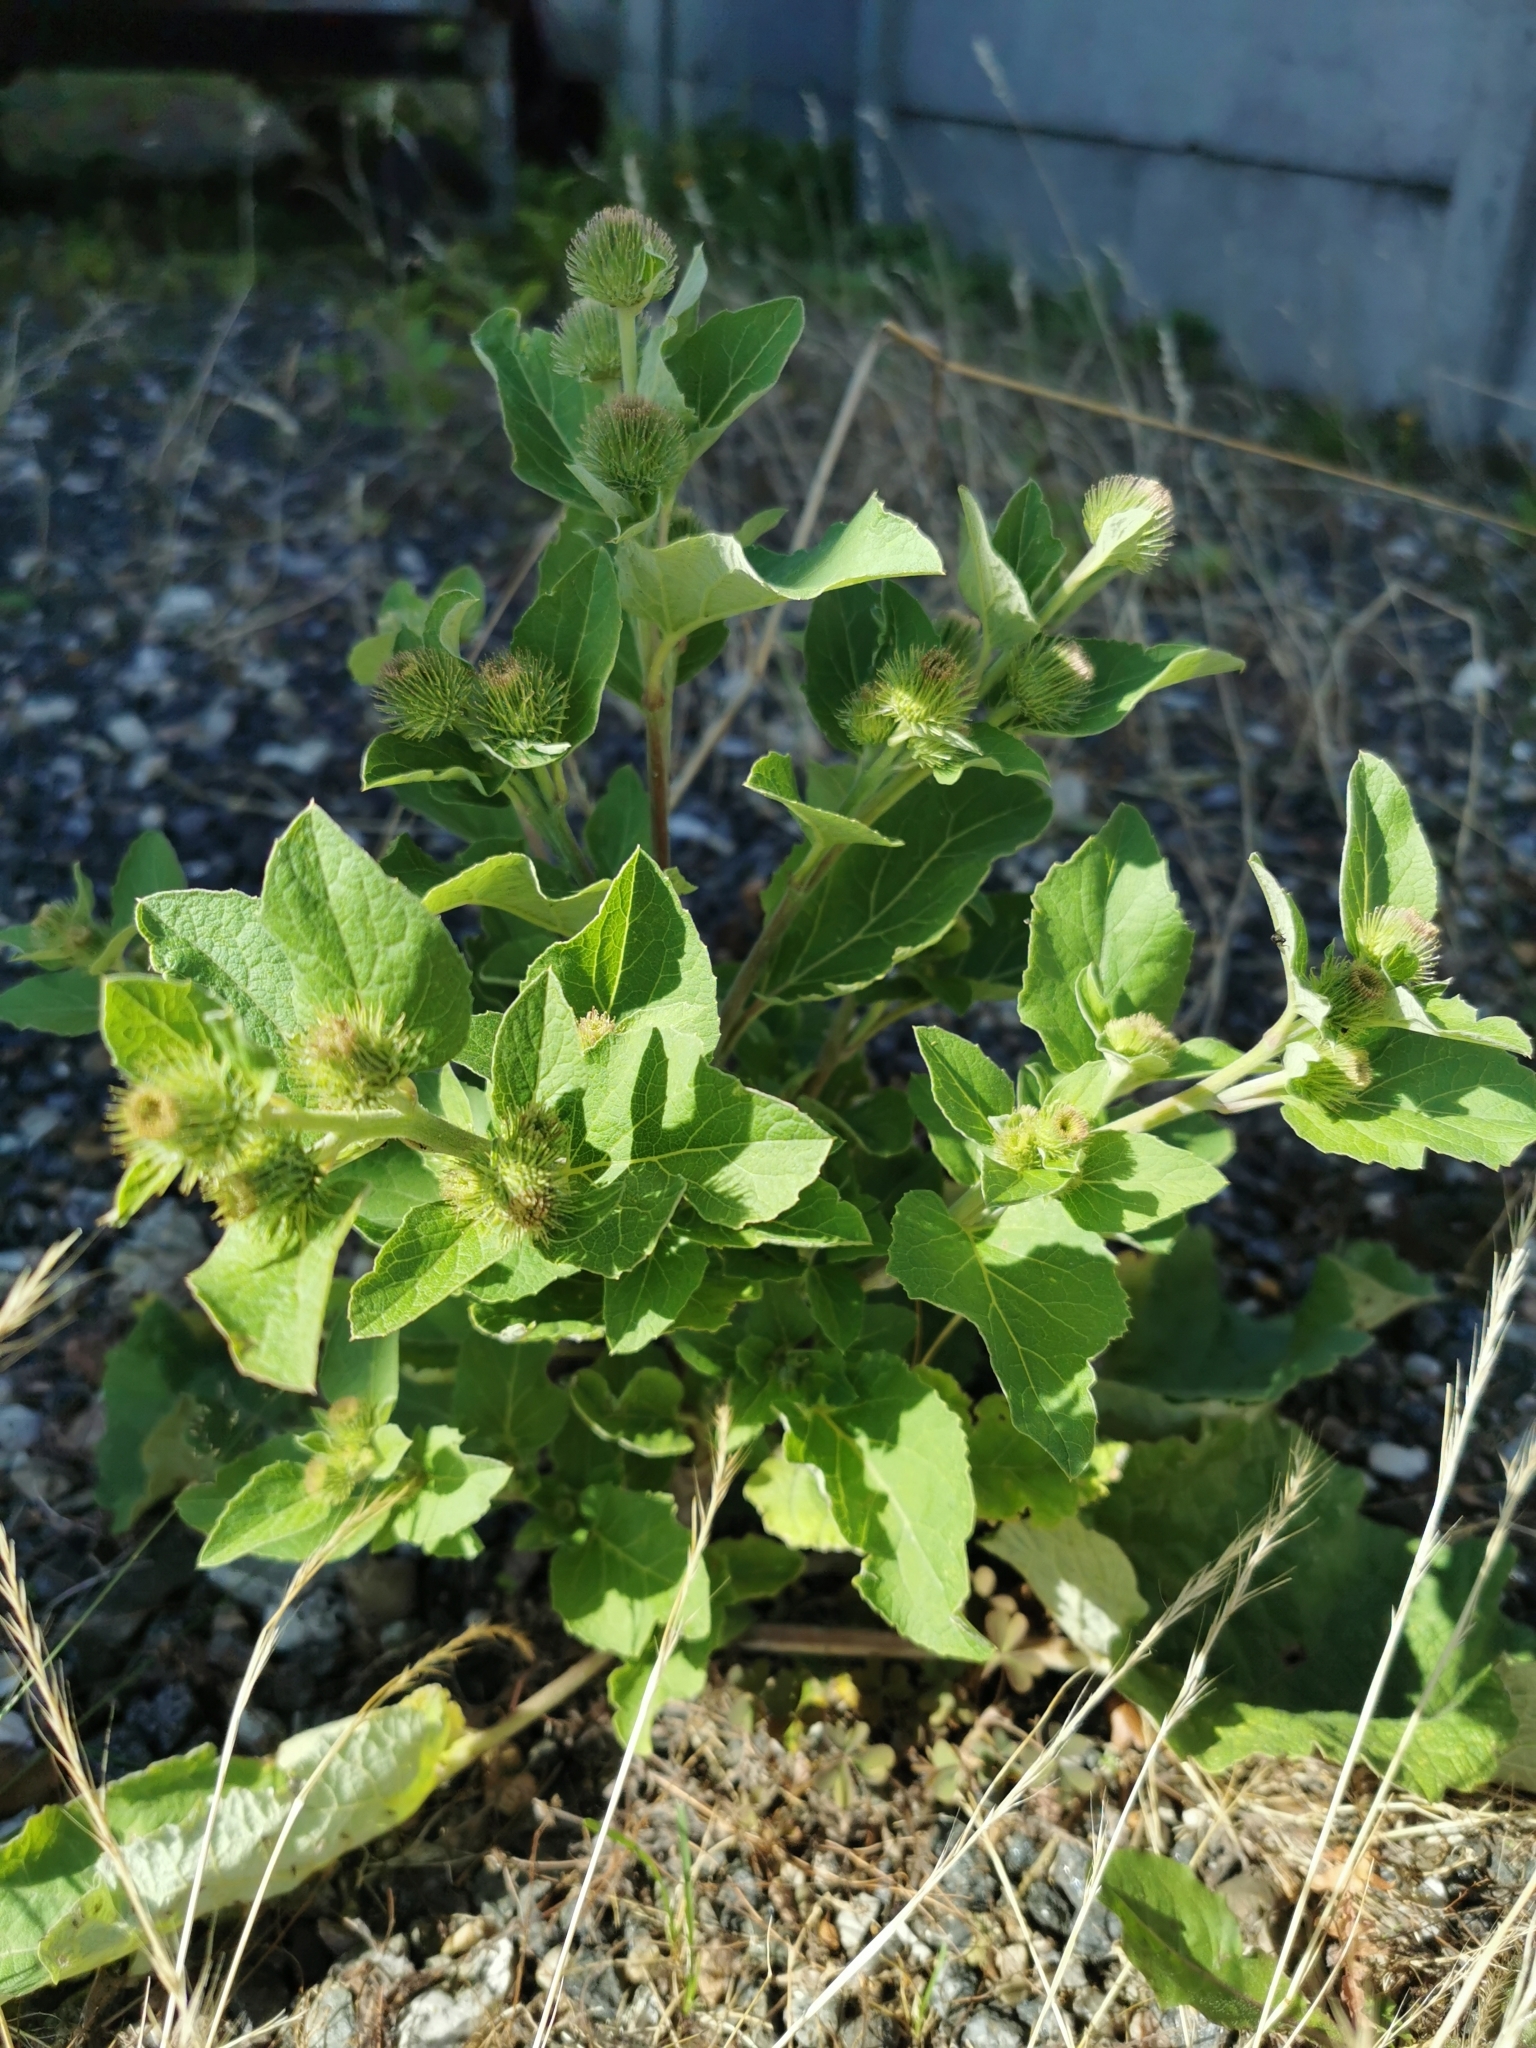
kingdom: Plantae
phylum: Tracheophyta
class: Magnoliopsida
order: Asterales
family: Asteraceae
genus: Arctium
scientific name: Arctium minus
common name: Lesser burdock
